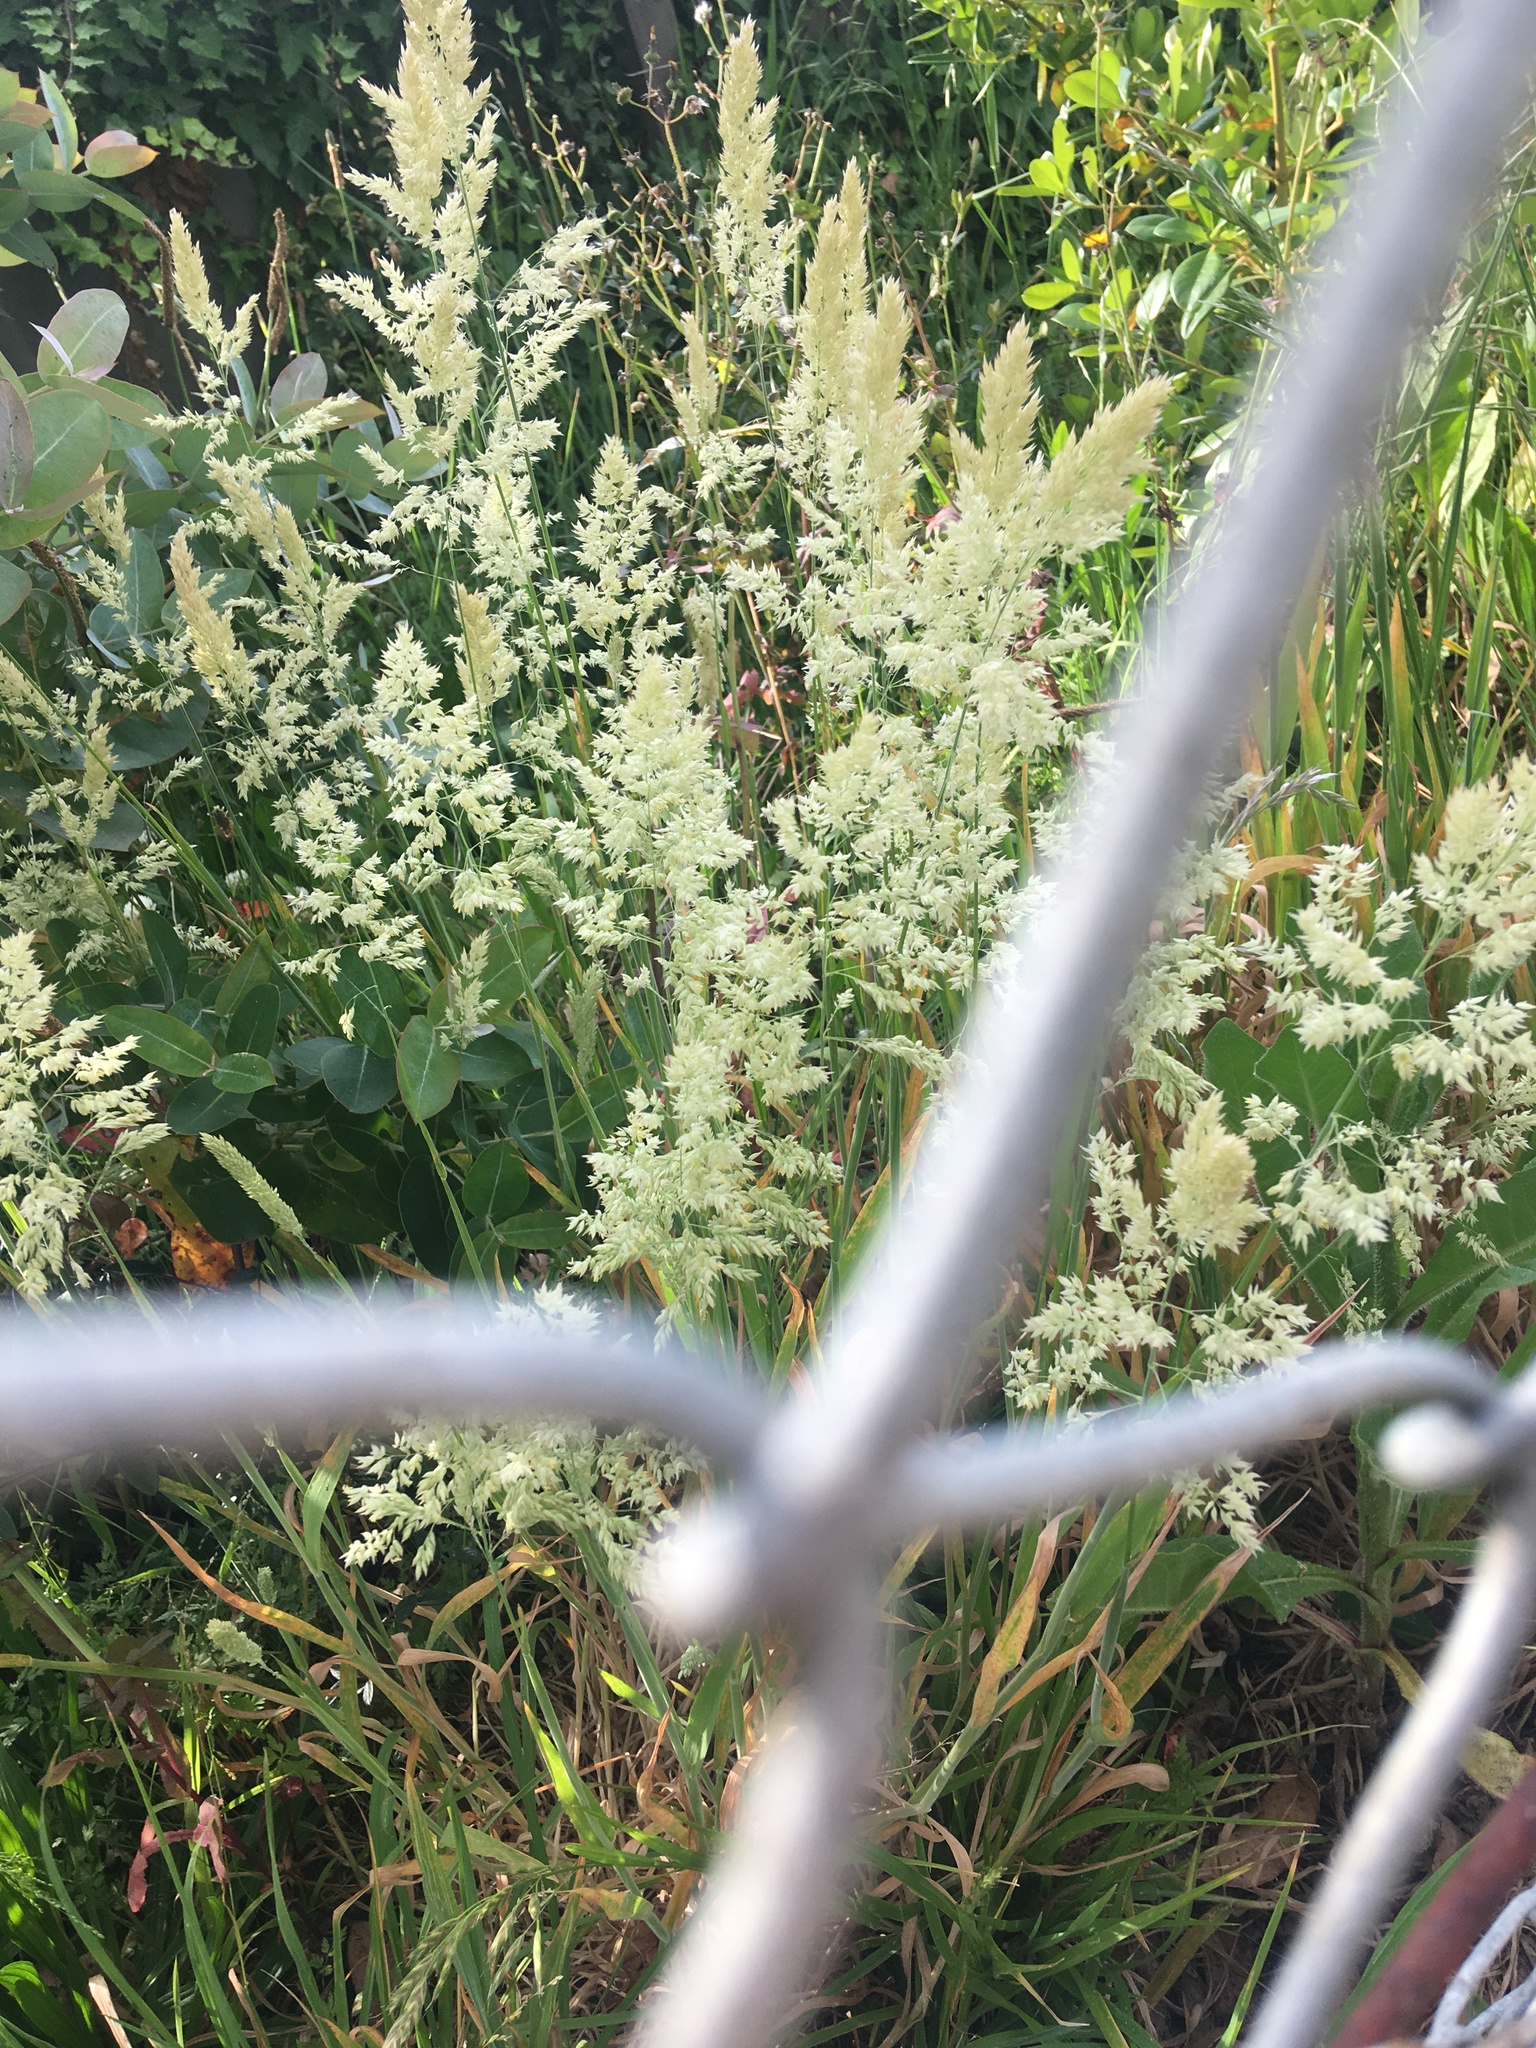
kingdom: Plantae
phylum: Tracheophyta
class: Liliopsida
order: Poales
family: Poaceae
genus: Holcus
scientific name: Holcus lanatus
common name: Yorkshire-fog
